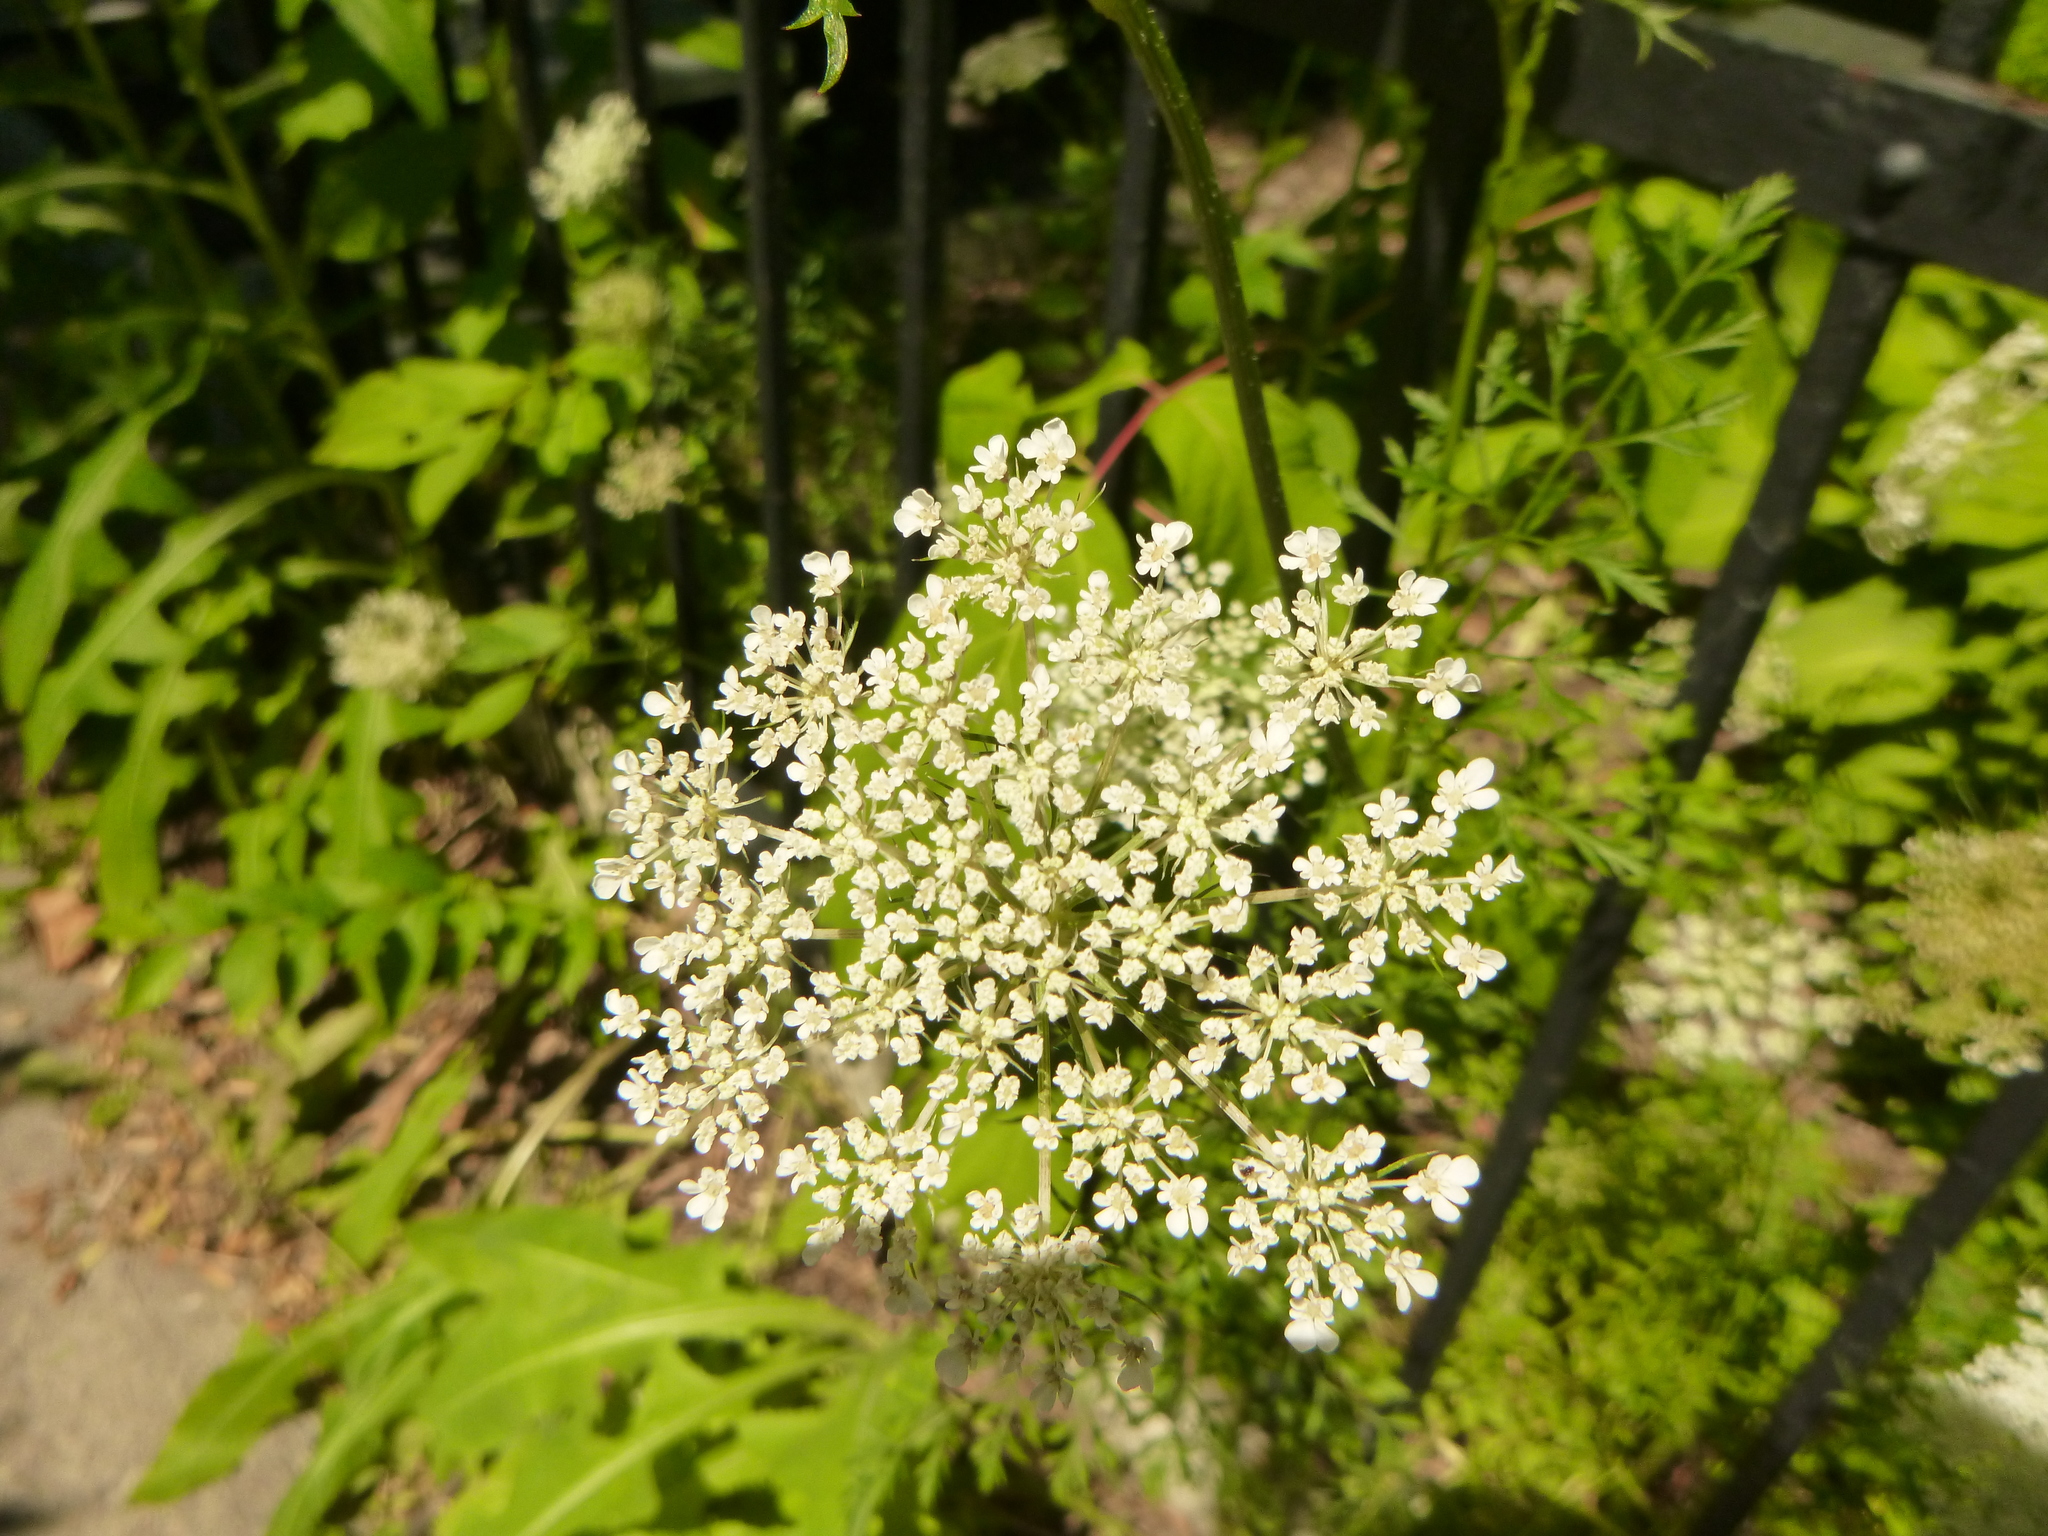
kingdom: Plantae
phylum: Tracheophyta
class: Magnoliopsida
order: Apiales
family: Apiaceae
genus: Daucus
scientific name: Daucus carota
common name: Wild carrot
